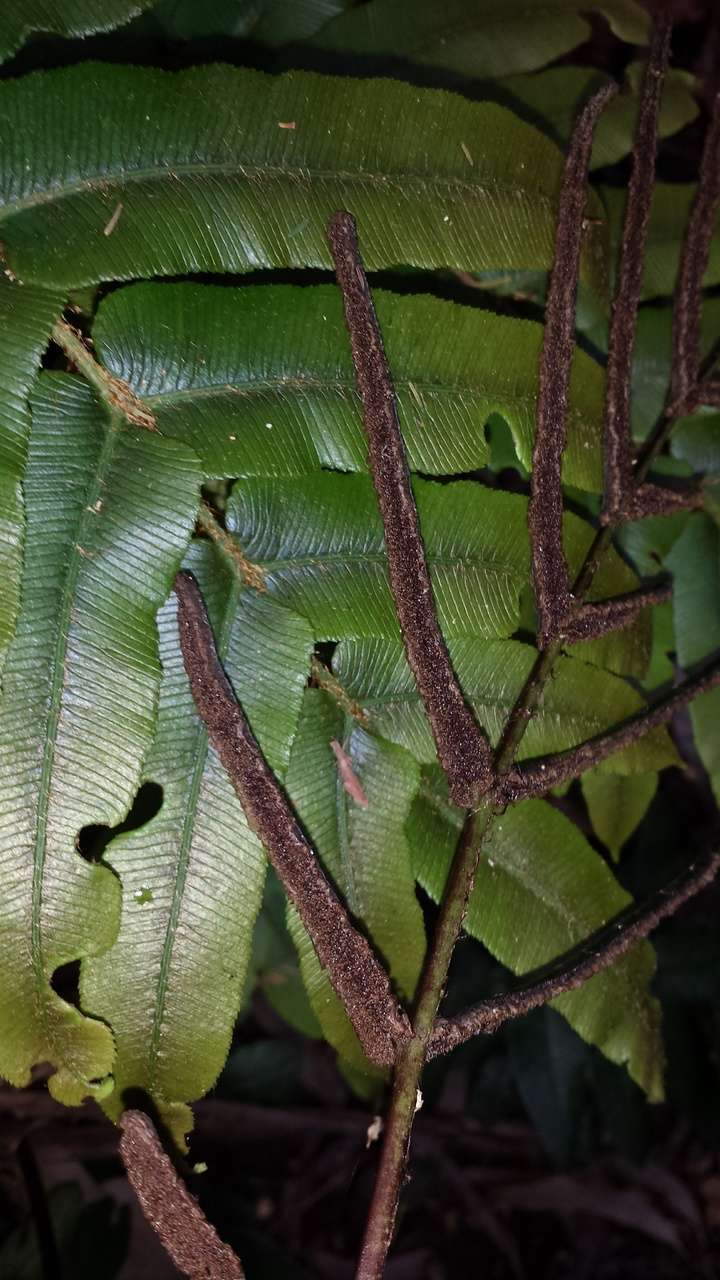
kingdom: Plantae
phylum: Tracheophyta
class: Polypodiopsida
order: Polypodiales
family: Blechnaceae
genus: Parablechnum
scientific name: Parablechnum wattsii
